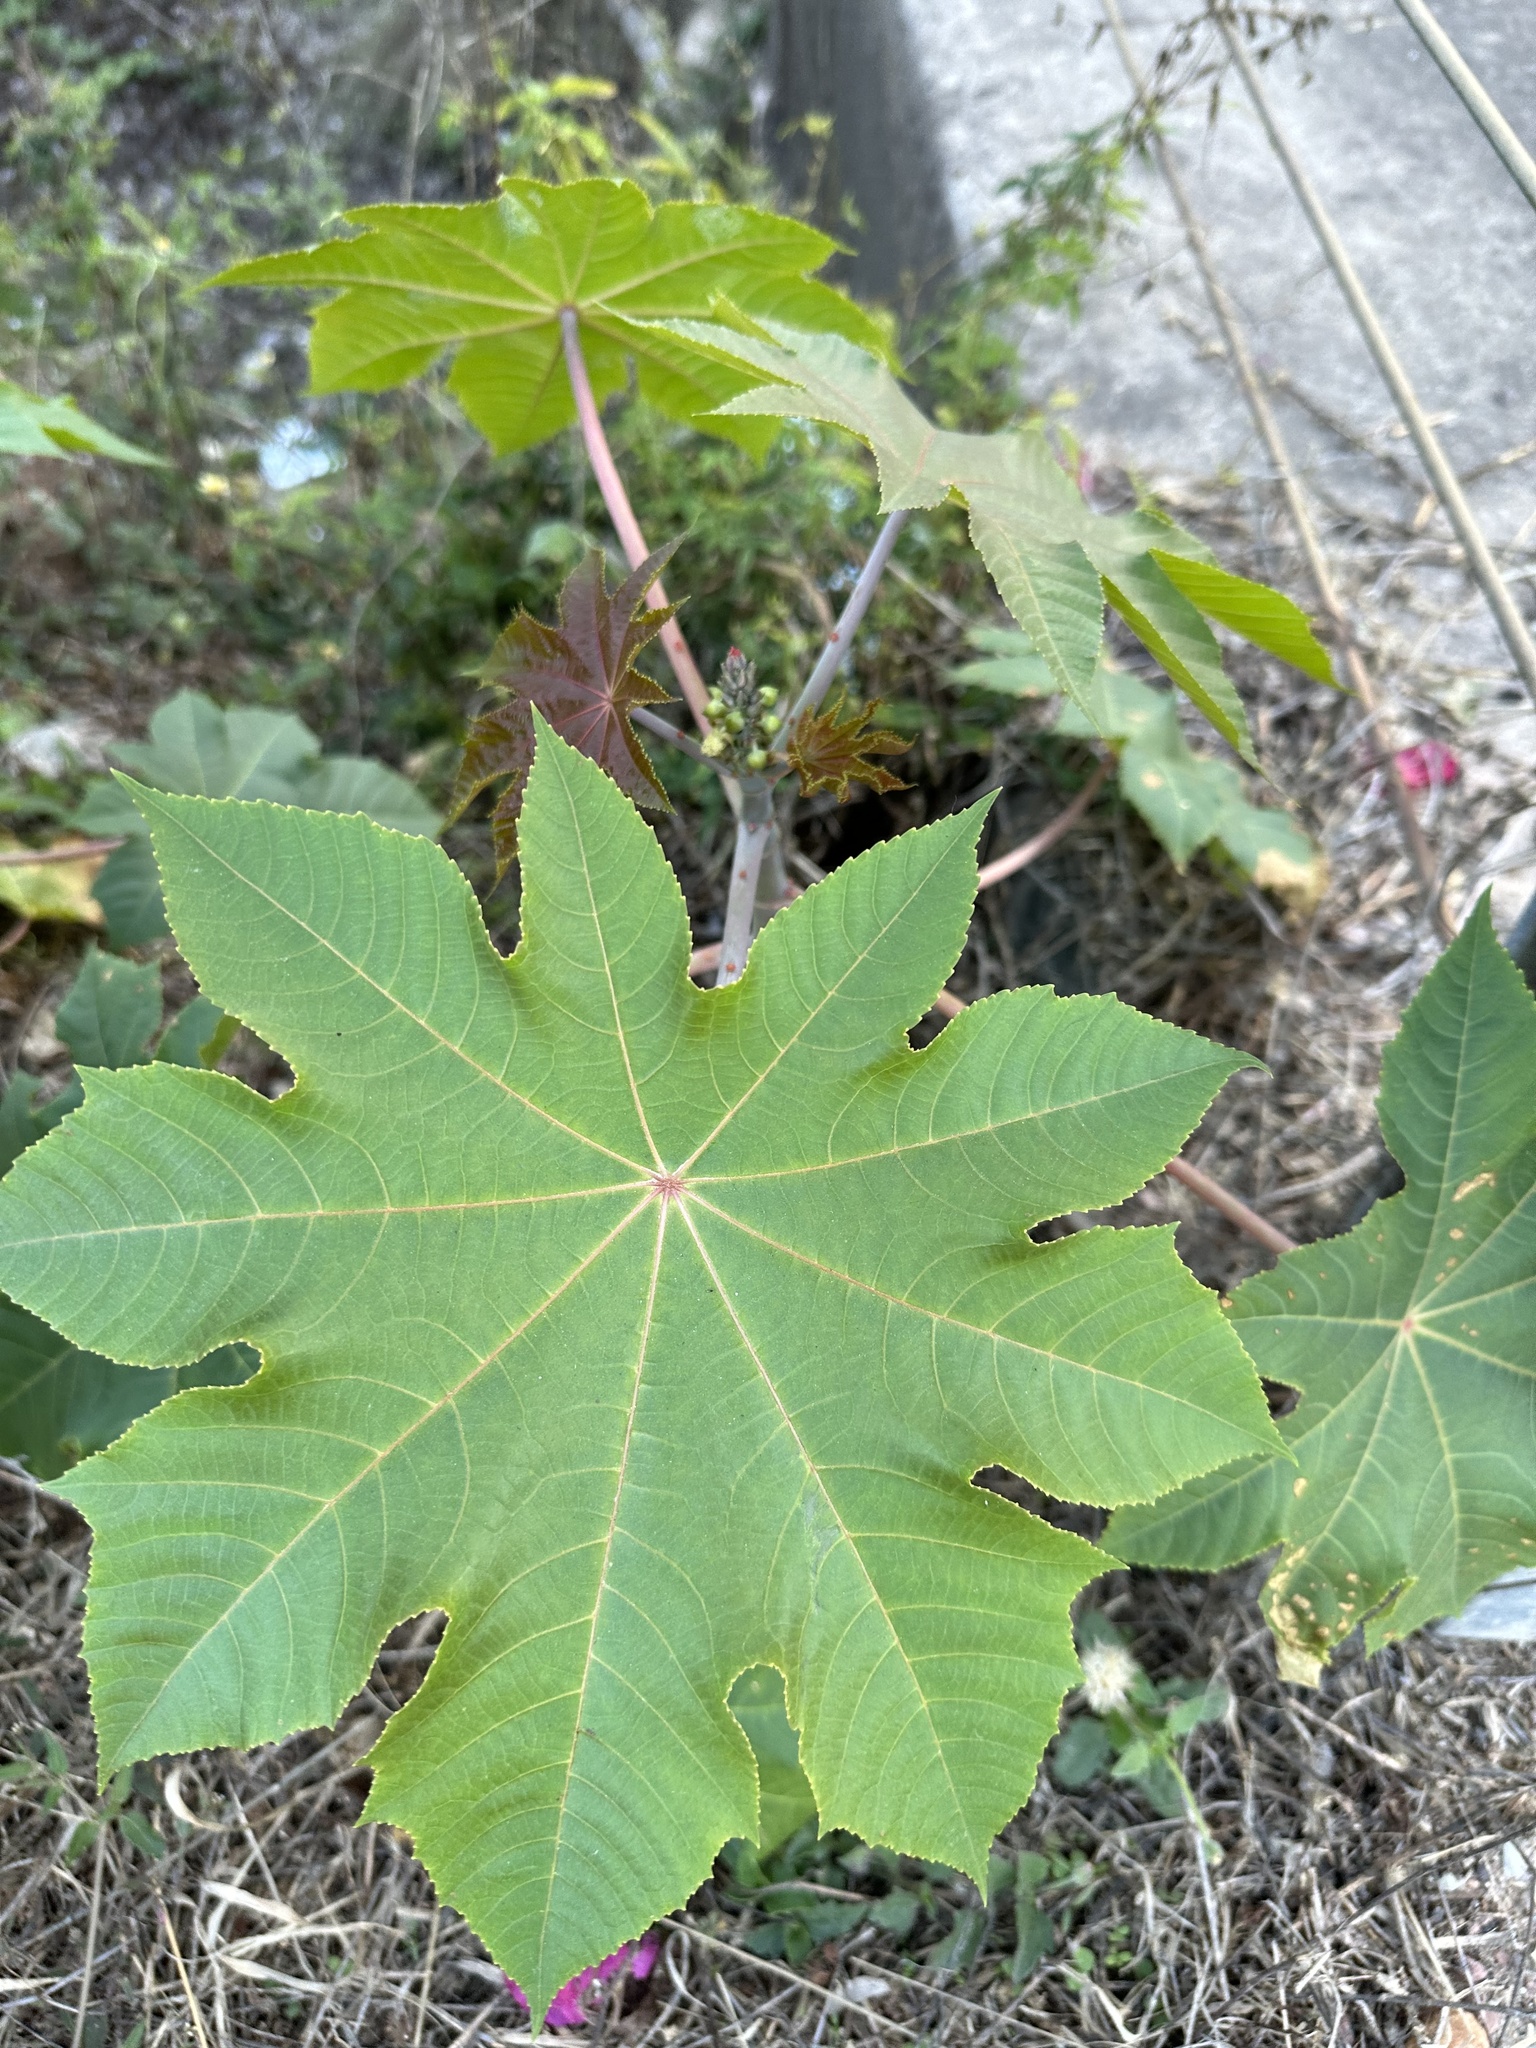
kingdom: Plantae
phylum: Tracheophyta
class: Magnoliopsida
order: Malpighiales
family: Euphorbiaceae
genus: Ricinus
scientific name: Ricinus communis
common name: Castor-oil-plant
